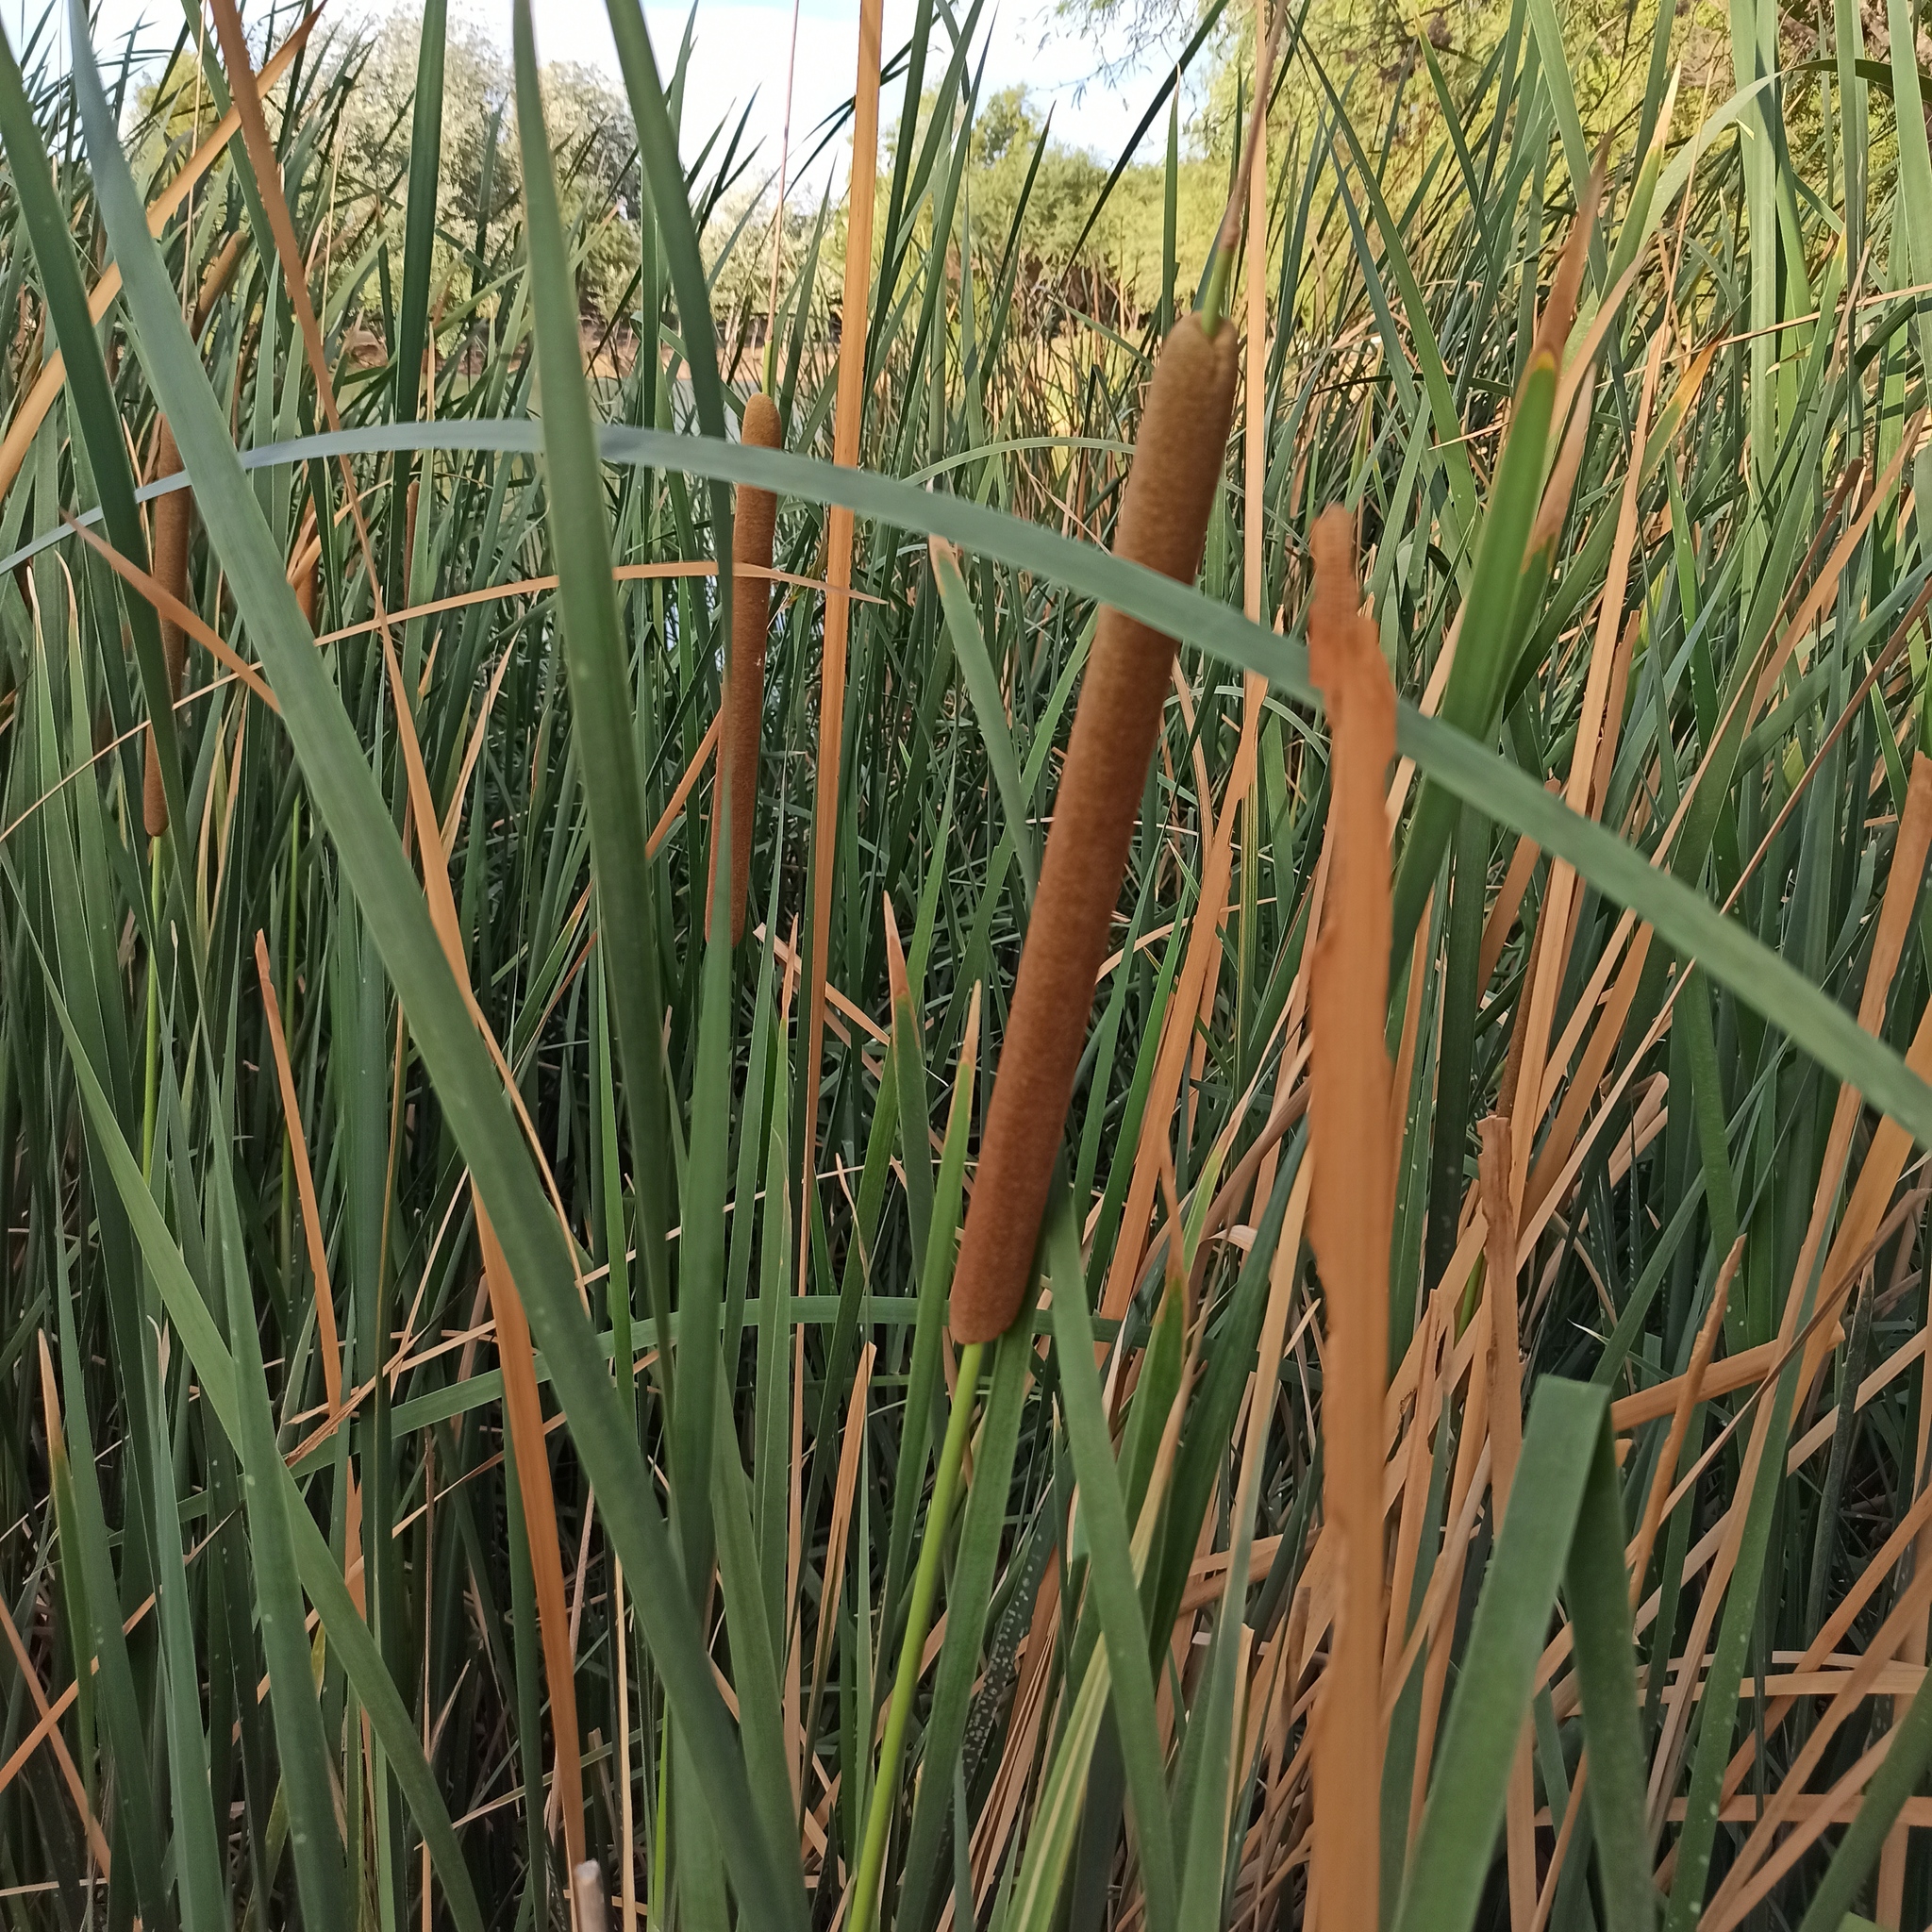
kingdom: Plantae
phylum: Tracheophyta
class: Liliopsida
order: Poales
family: Typhaceae
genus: Typha
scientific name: Typha domingensis
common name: Southern cattail
